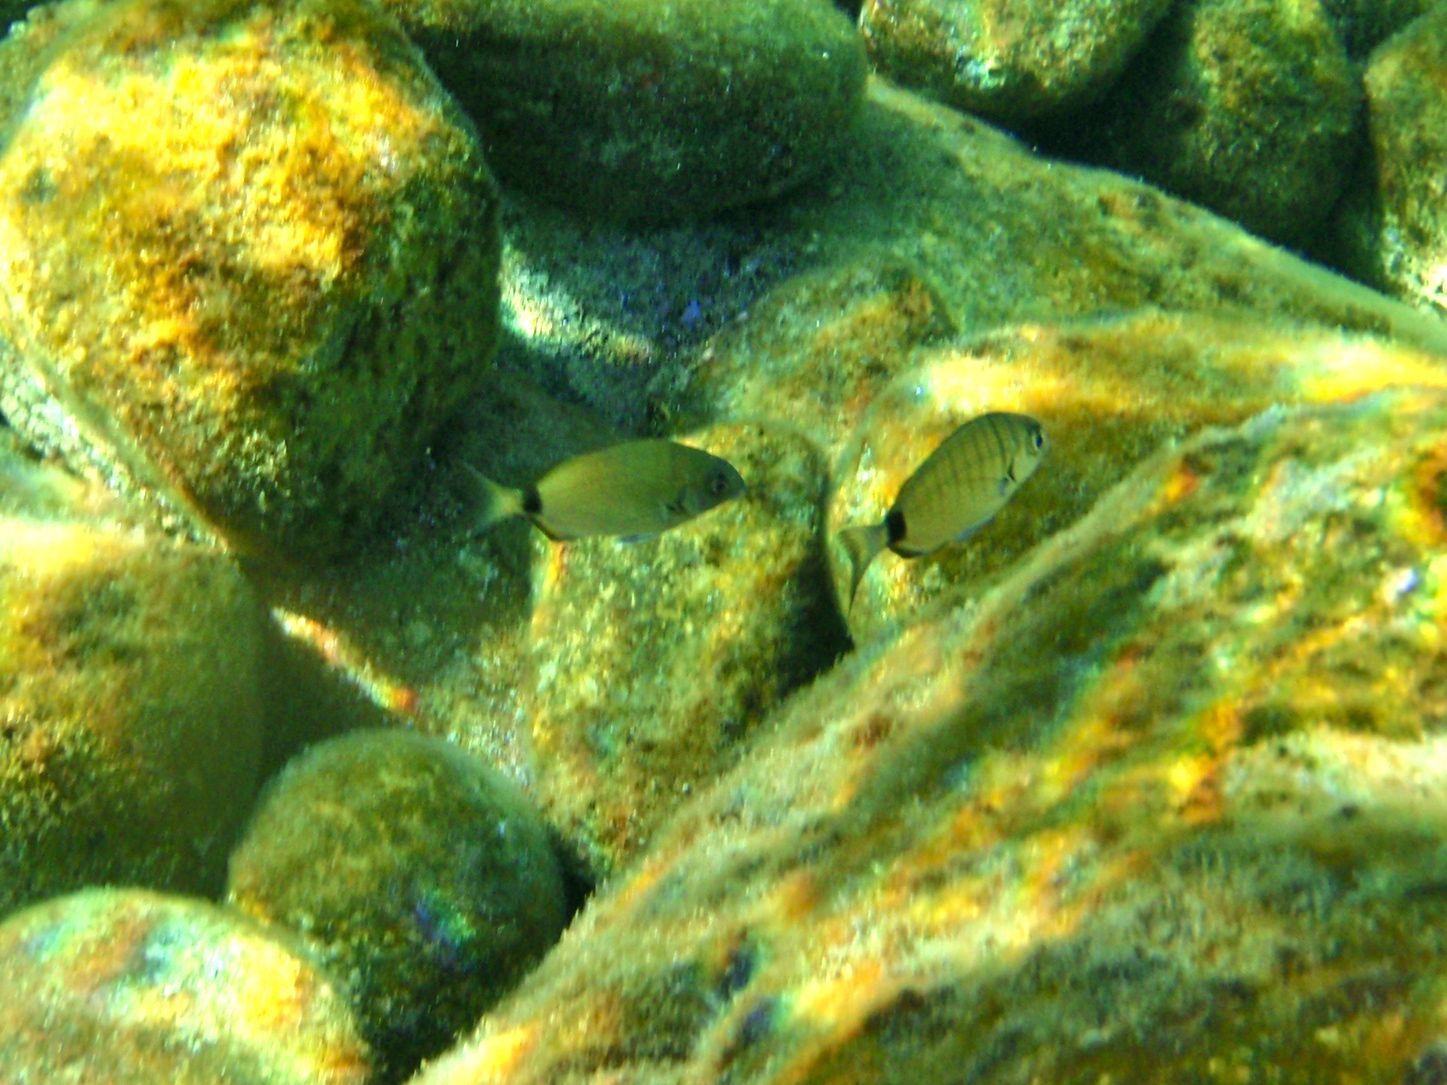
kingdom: Animalia
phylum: Chordata
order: Perciformes
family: Sparidae
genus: Diplodus
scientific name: Diplodus sargus
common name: White seabream
